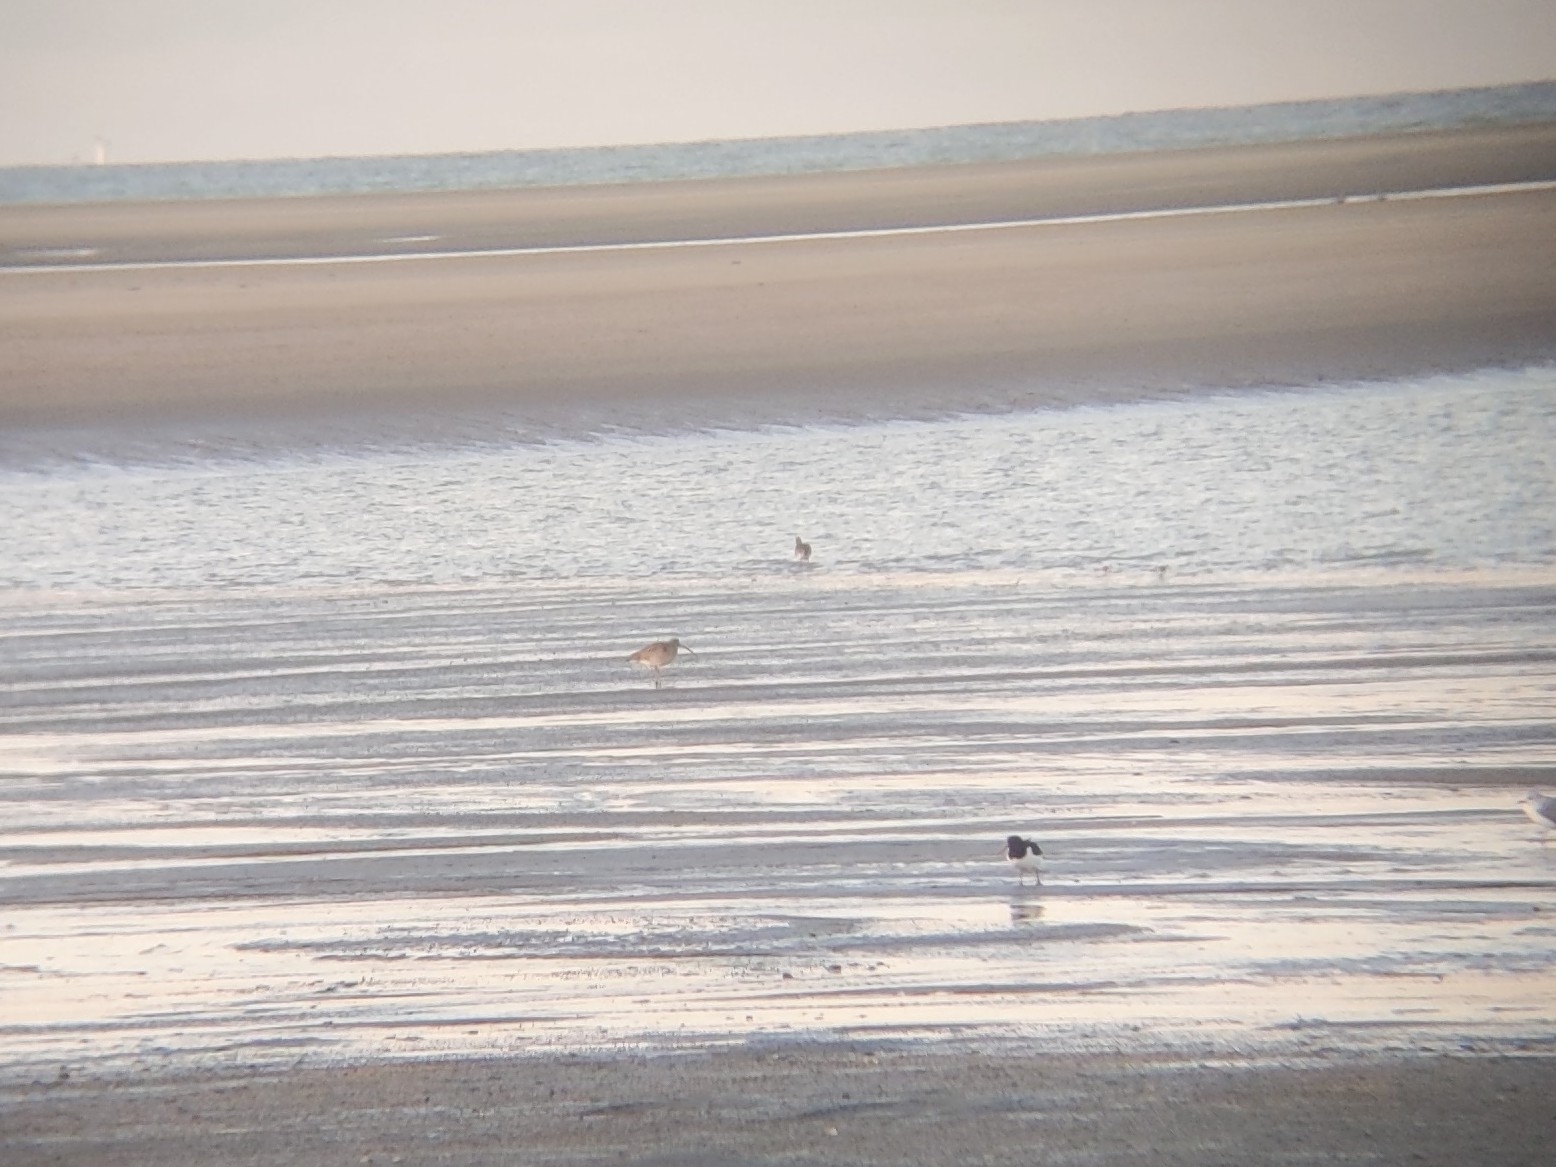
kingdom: Animalia
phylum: Chordata
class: Aves
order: Charadriiformes
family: Scolopacidae
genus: Numenius
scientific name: Numenius arquata
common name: Eurasian curlew
